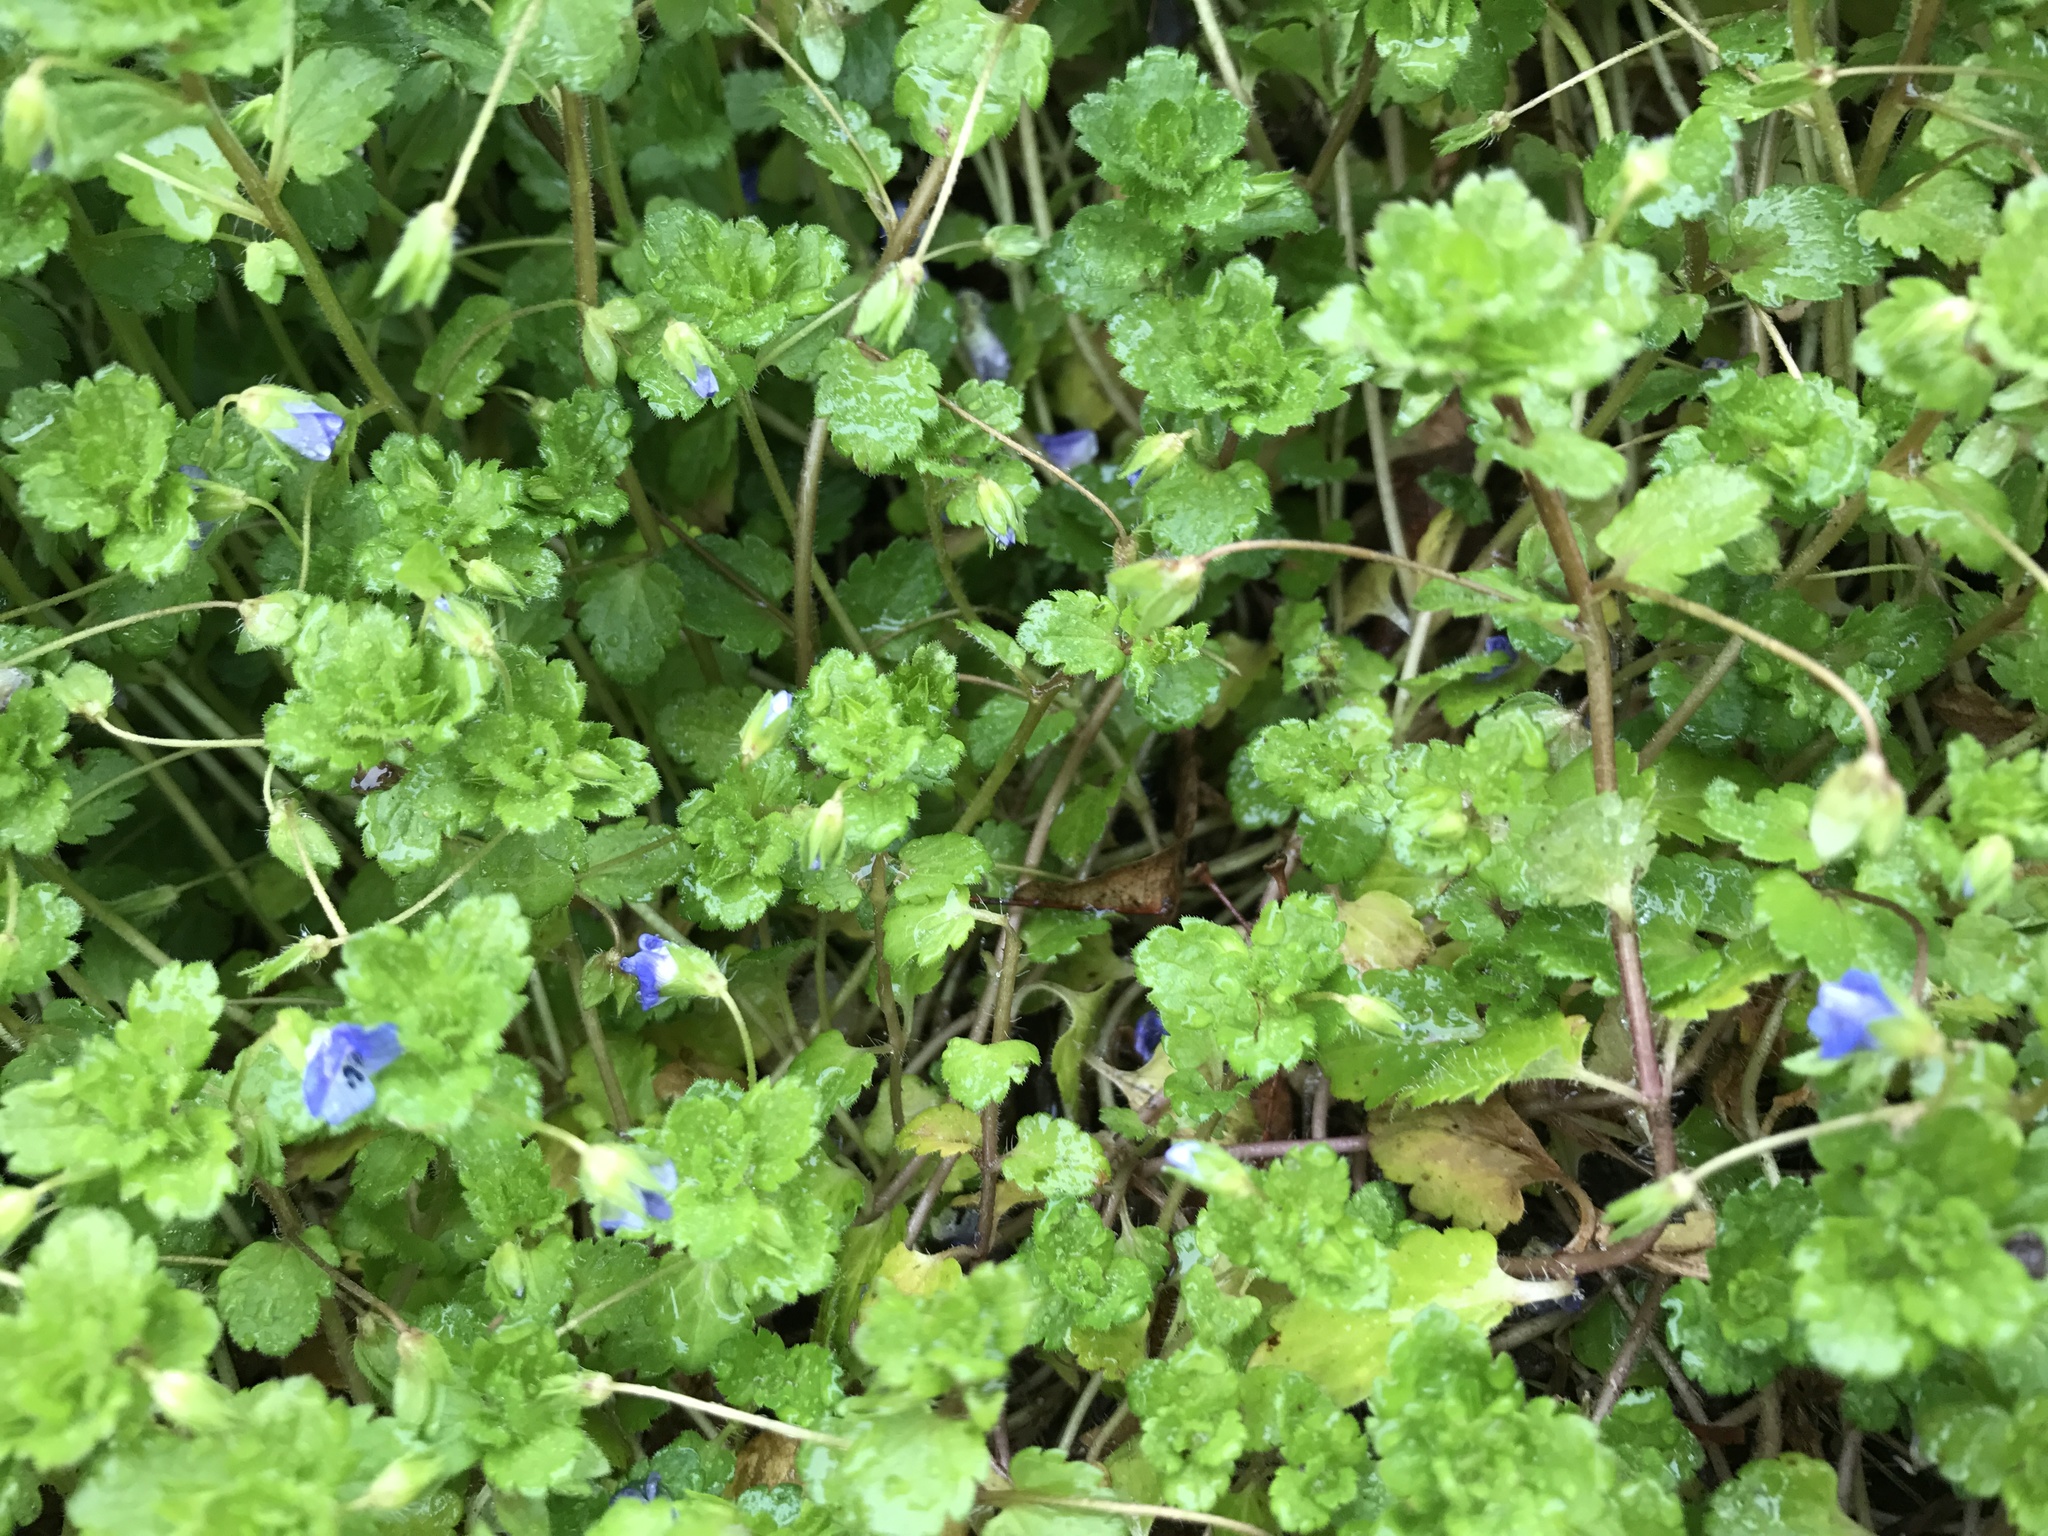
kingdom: Plantae
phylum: Tracheophyta
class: Magnoliopsida
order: Lamiales
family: Plantaginaceae
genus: Veronica
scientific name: Veronica persica
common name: Common field-speedwell
